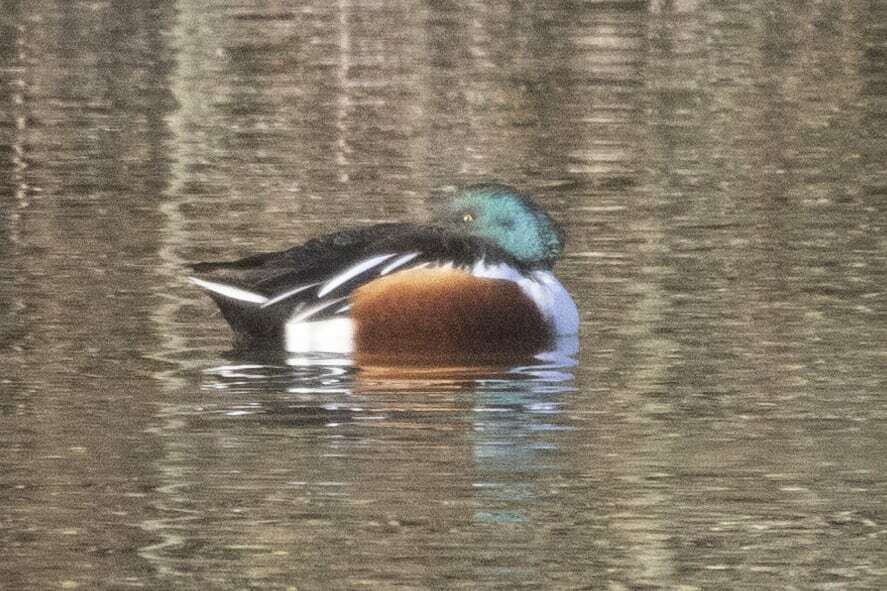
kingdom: Animalia
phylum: Chordata
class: Aves
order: Anseriformes
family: Anatidae
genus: Spatula
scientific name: Spatula clypeata
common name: Northern shoveler
